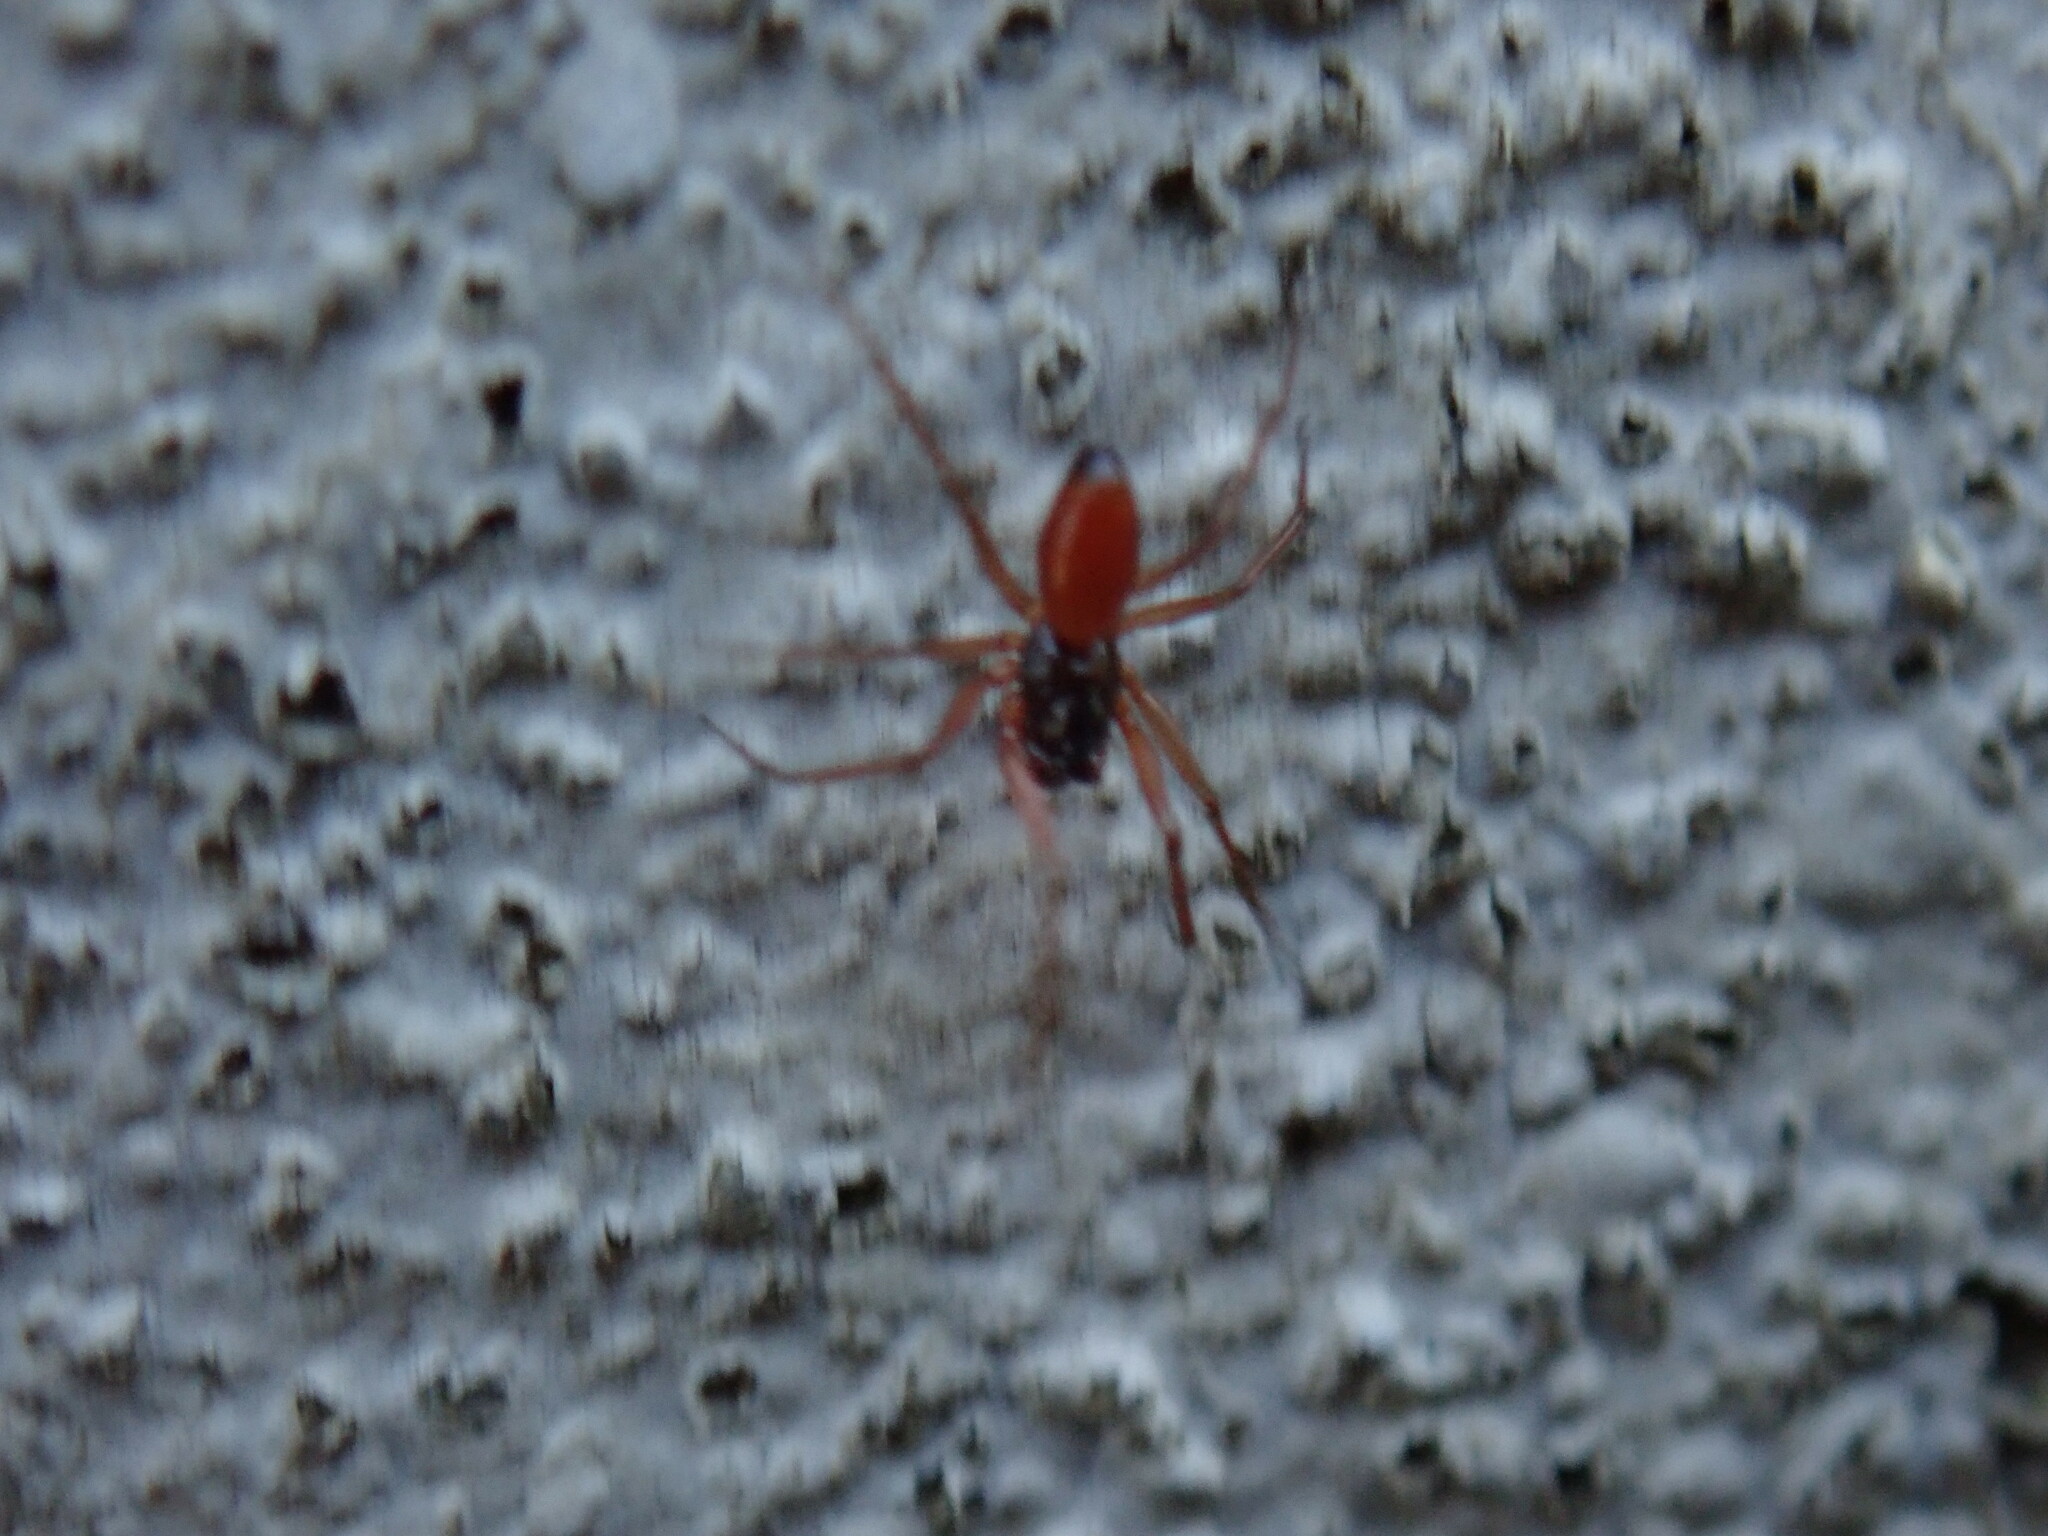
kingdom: Animalia
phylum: Arthropoda
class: Arachnida
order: Araneae
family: Linyphiidae
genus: Ostearius
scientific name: Ostearius melanopygius
